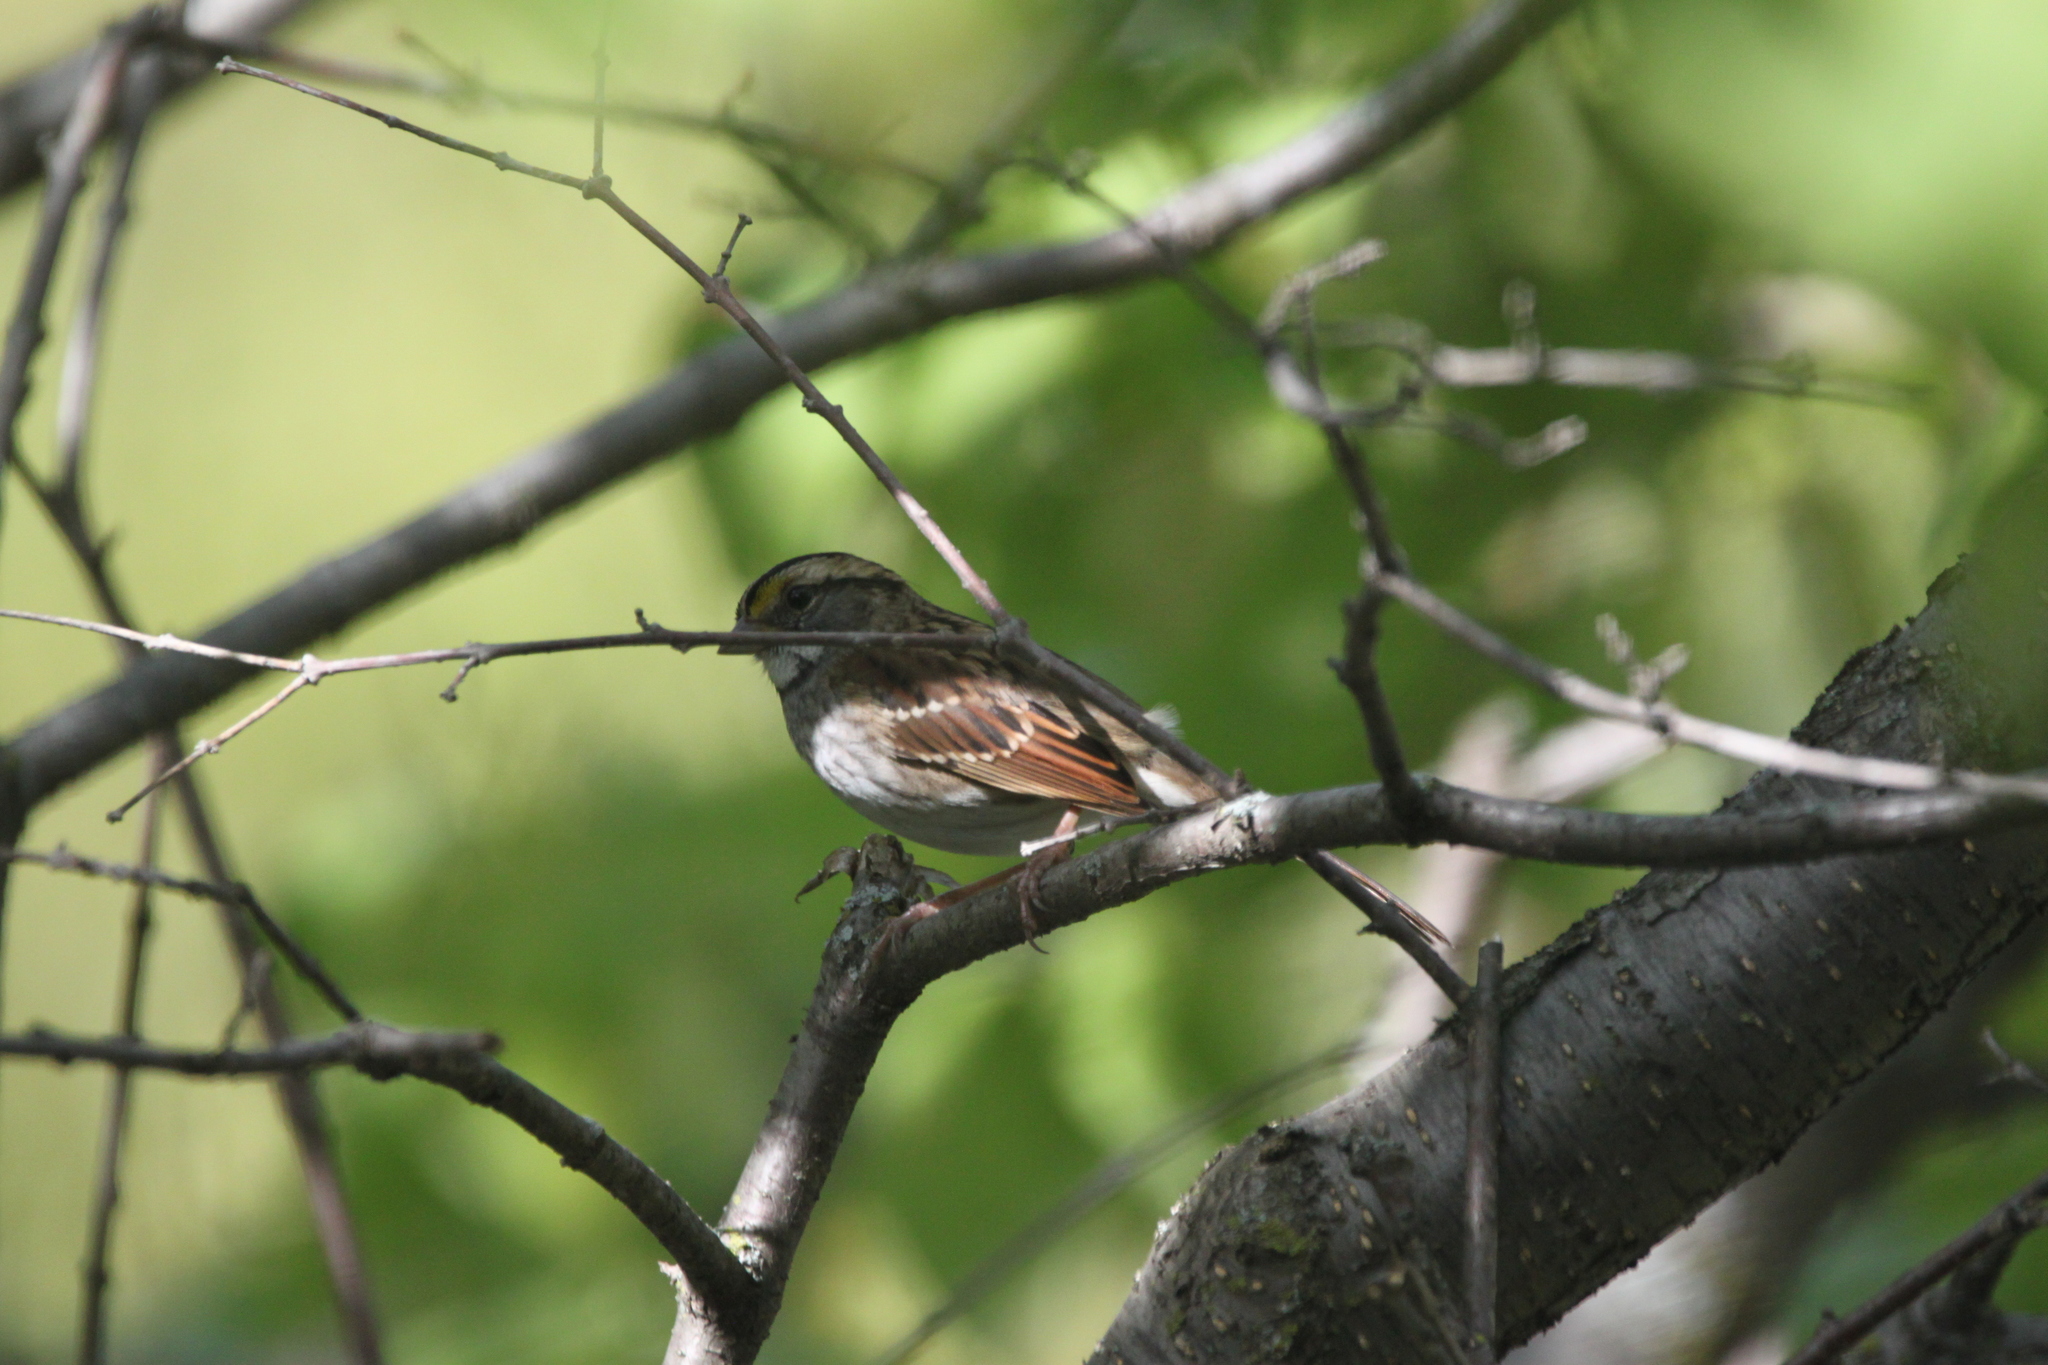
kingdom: Animalia
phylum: Chordata
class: Aves
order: Passeriformes
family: Passerellidae
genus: Zonotrichia
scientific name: Zonotrichia albicollis
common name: White-throated sparrow
